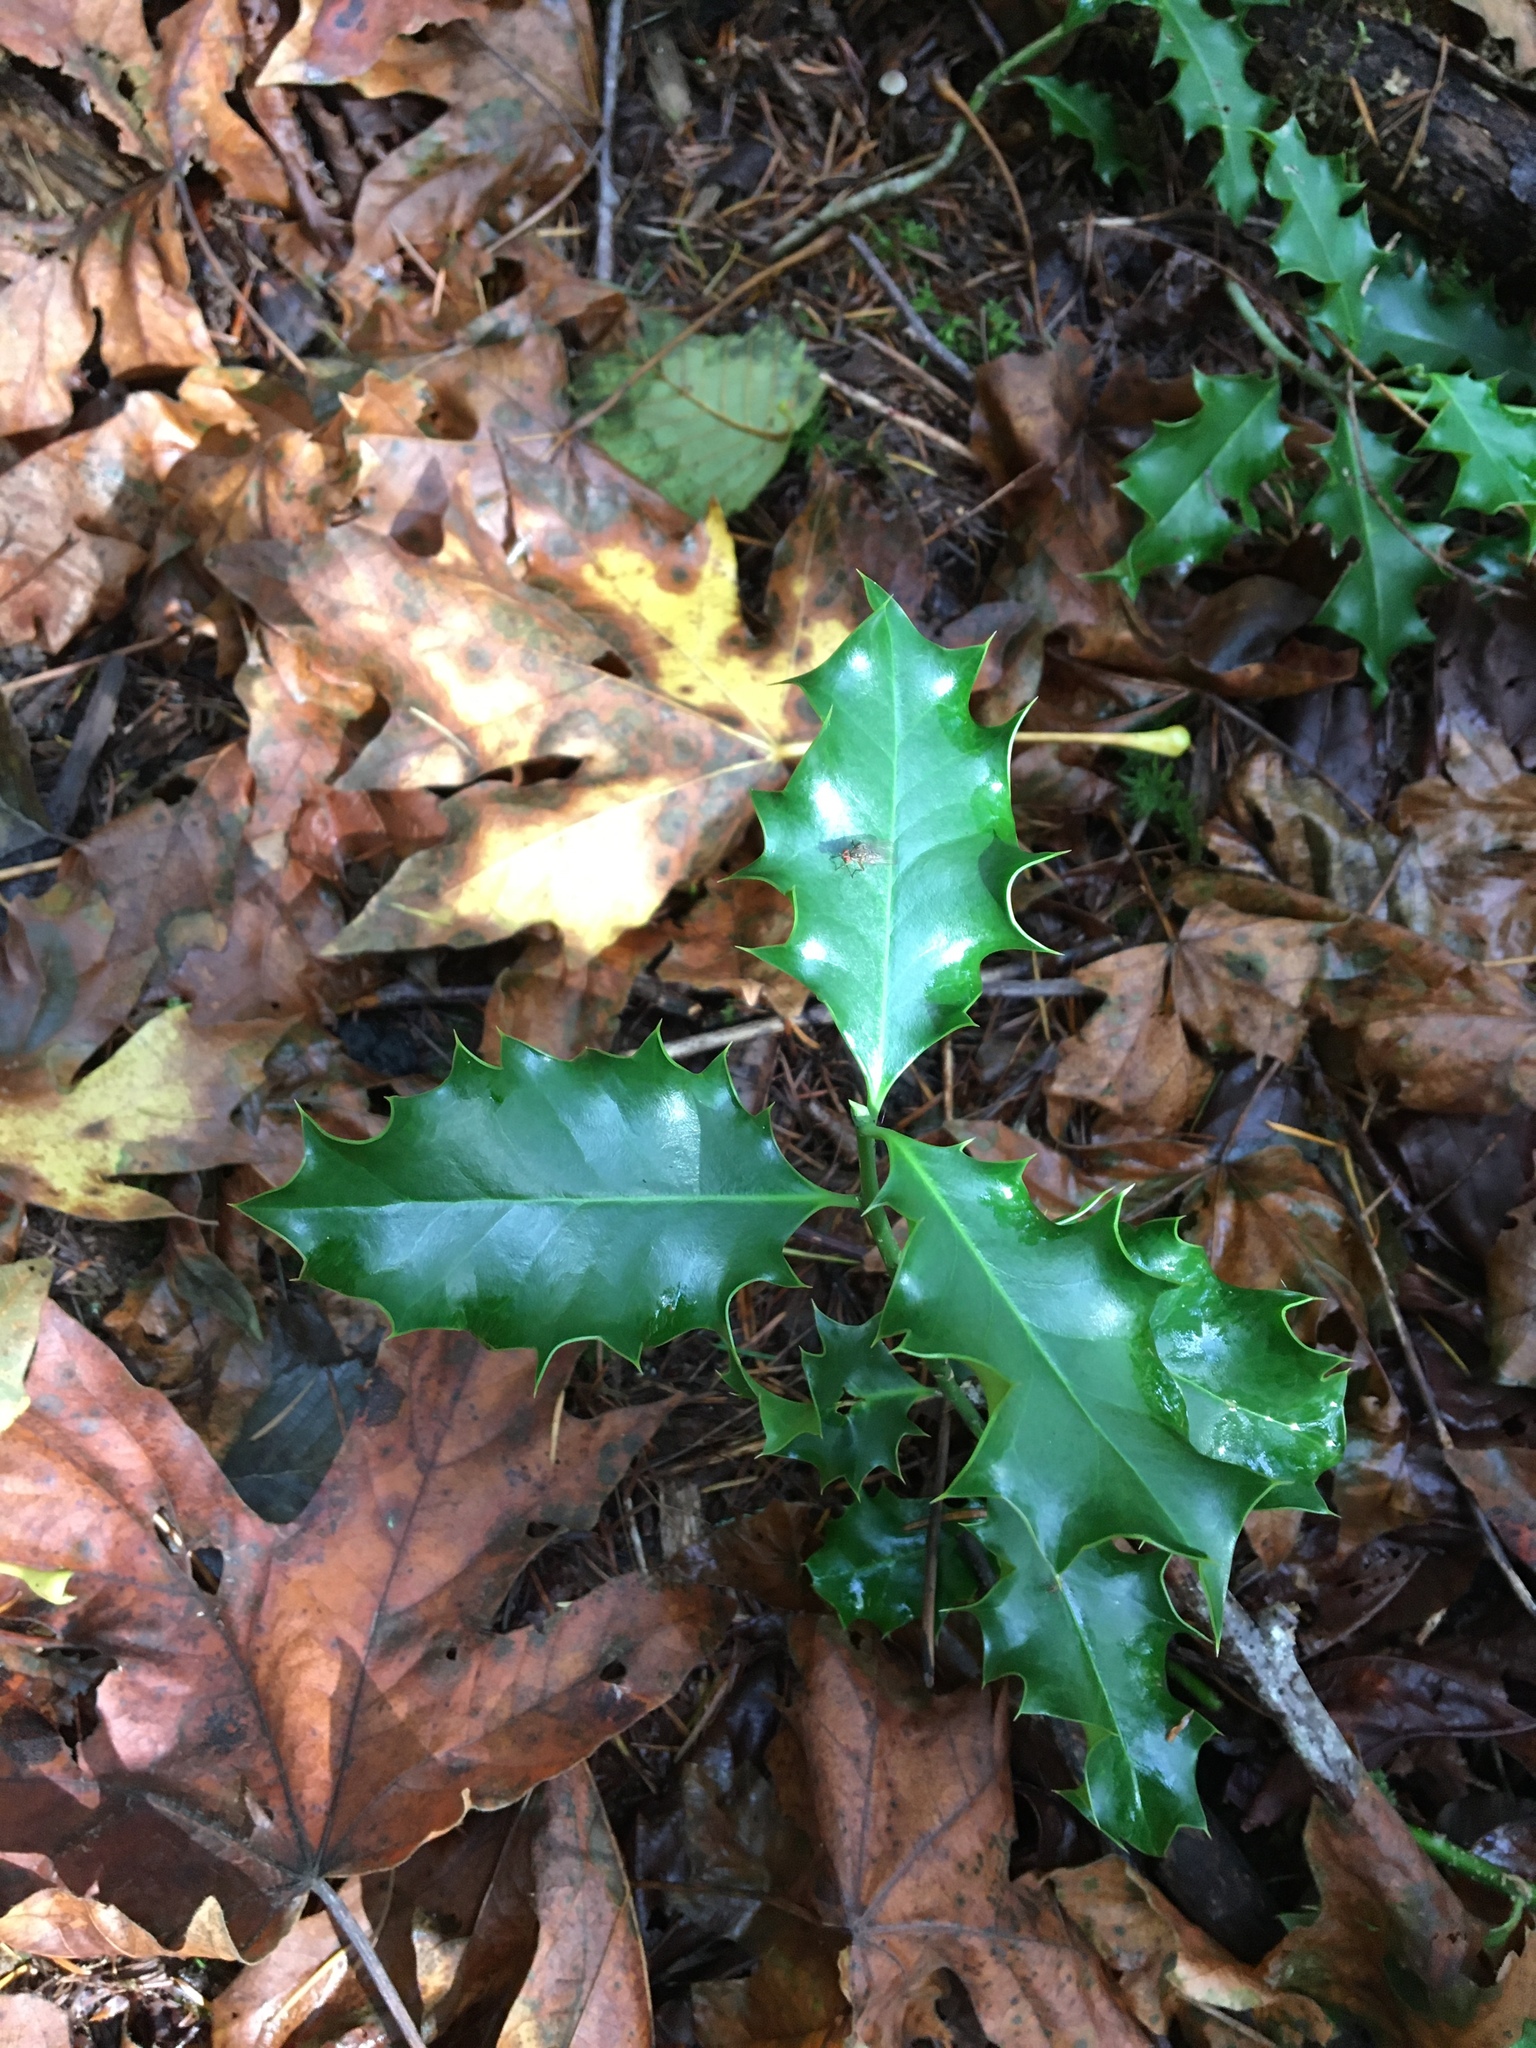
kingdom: Plantae
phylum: Tracheophyta
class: Magnoliopsida
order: Aquifoliales
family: Aquifoliaceae
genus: Ilex
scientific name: Ilex aquifolium
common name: English holly
